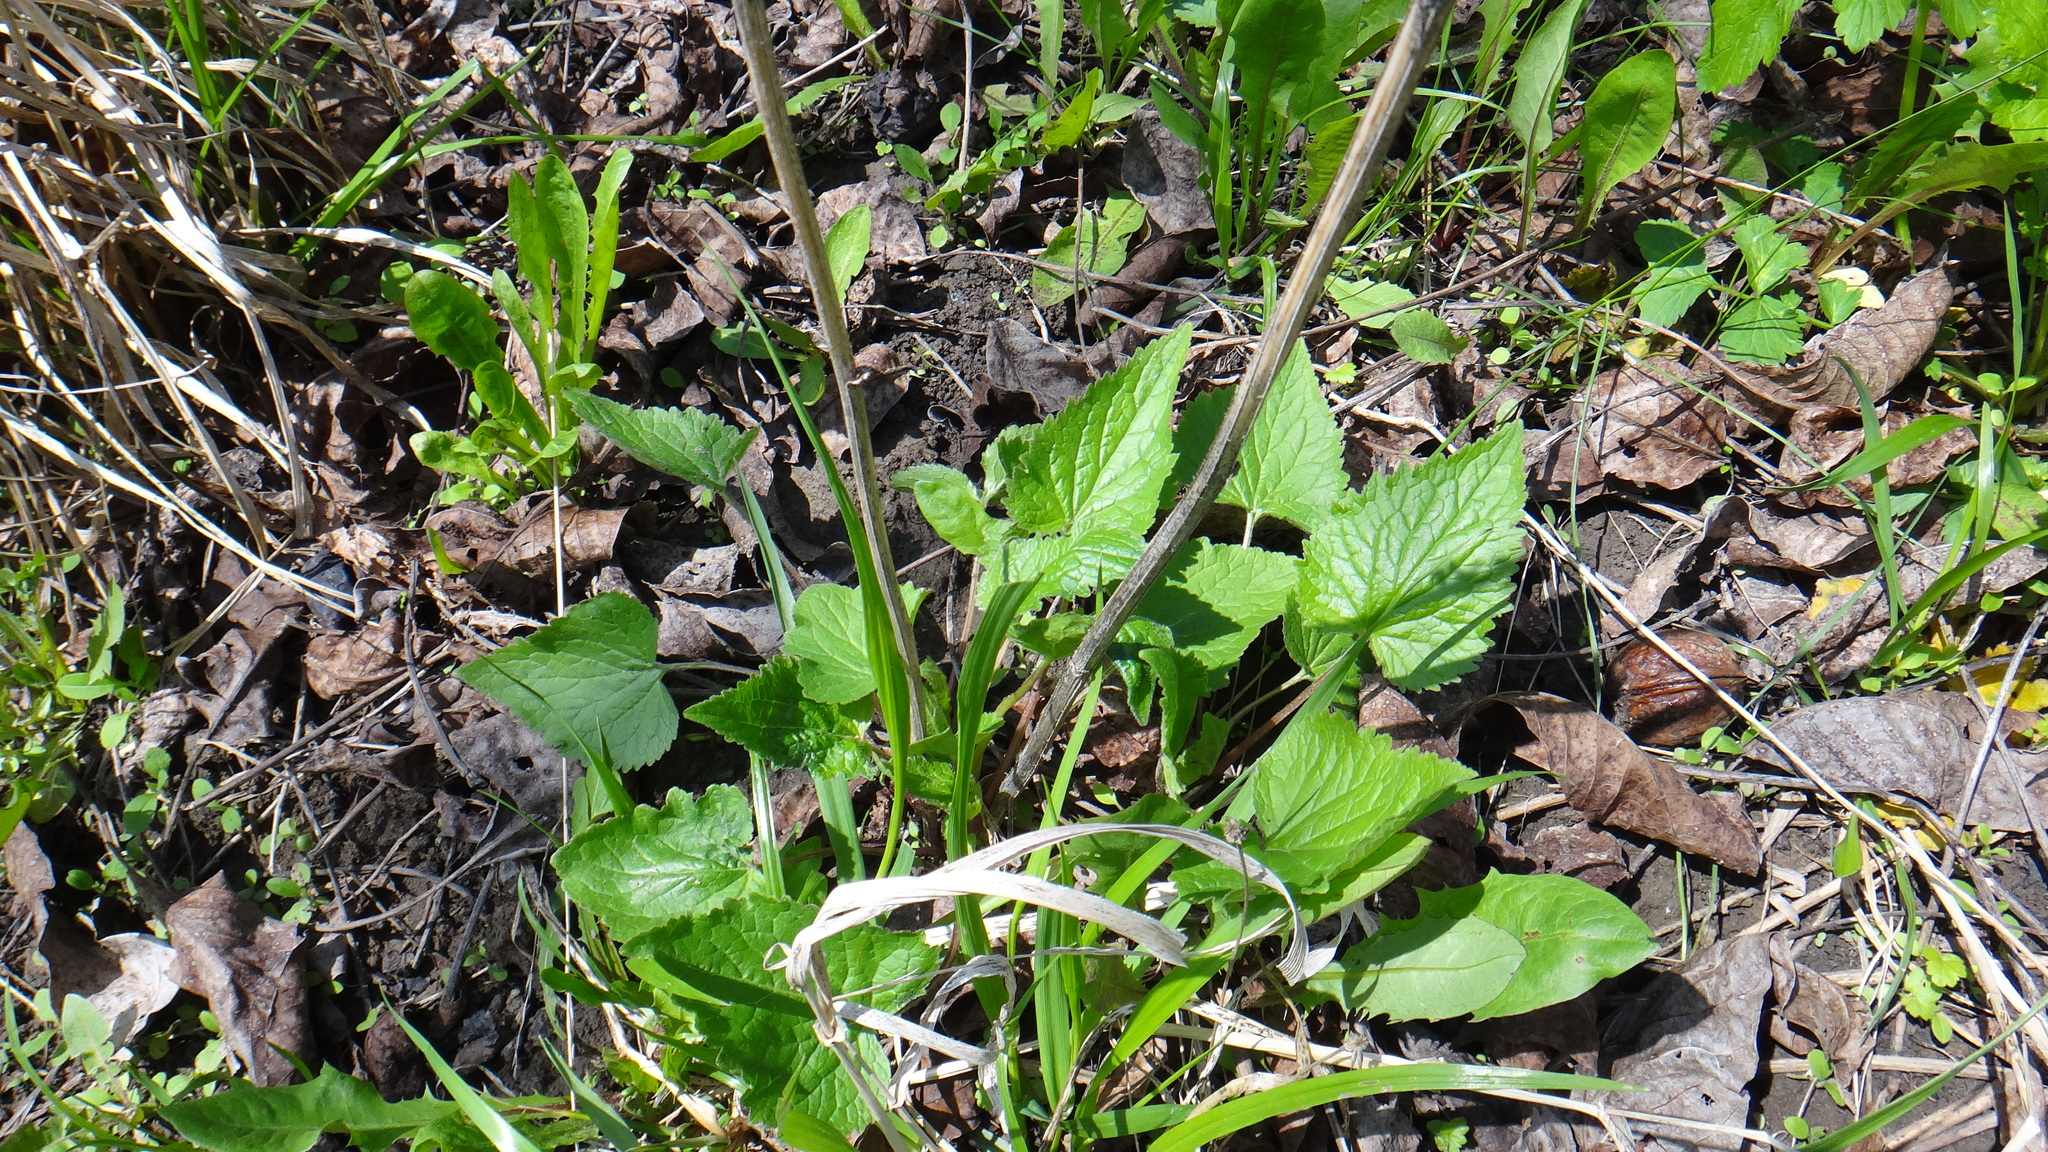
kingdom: Plantae
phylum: Tracheophyta
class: Magnoliopsida
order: Asterales
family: Campanulaceae
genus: Campanula
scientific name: Campanula trachelium
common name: Nettle-leaved bellflower
